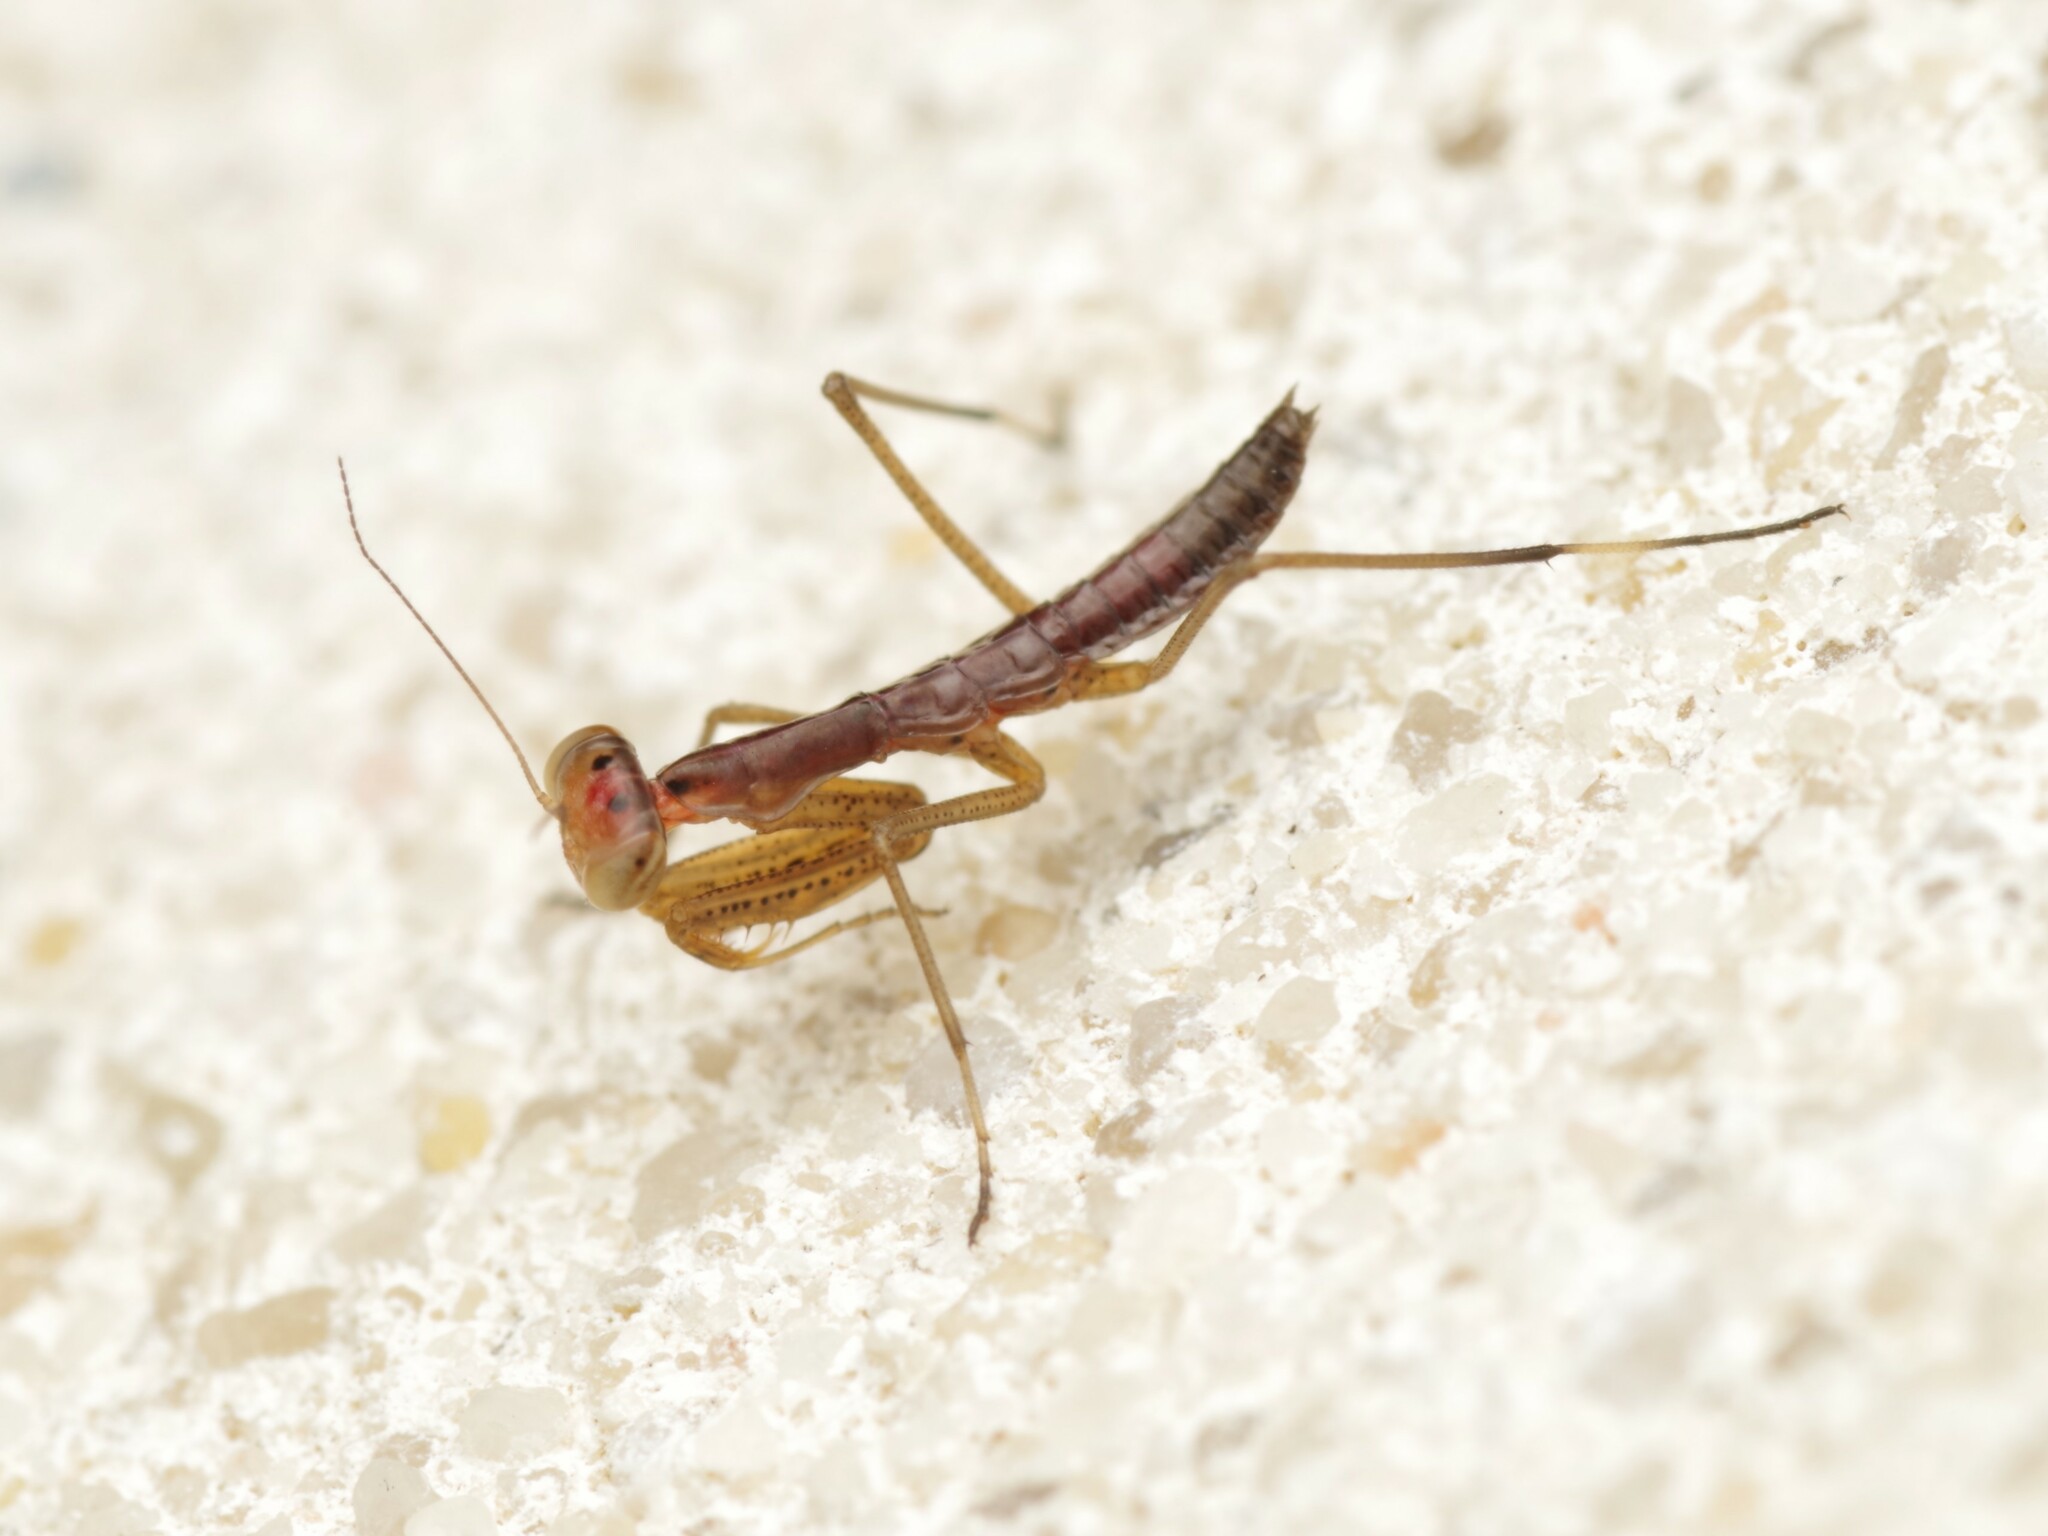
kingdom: Animalia
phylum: Arthropoda
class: Insecta
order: Mantodea
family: Mantidae
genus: Mantis
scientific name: Mantis religiosa
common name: Praying mantis
